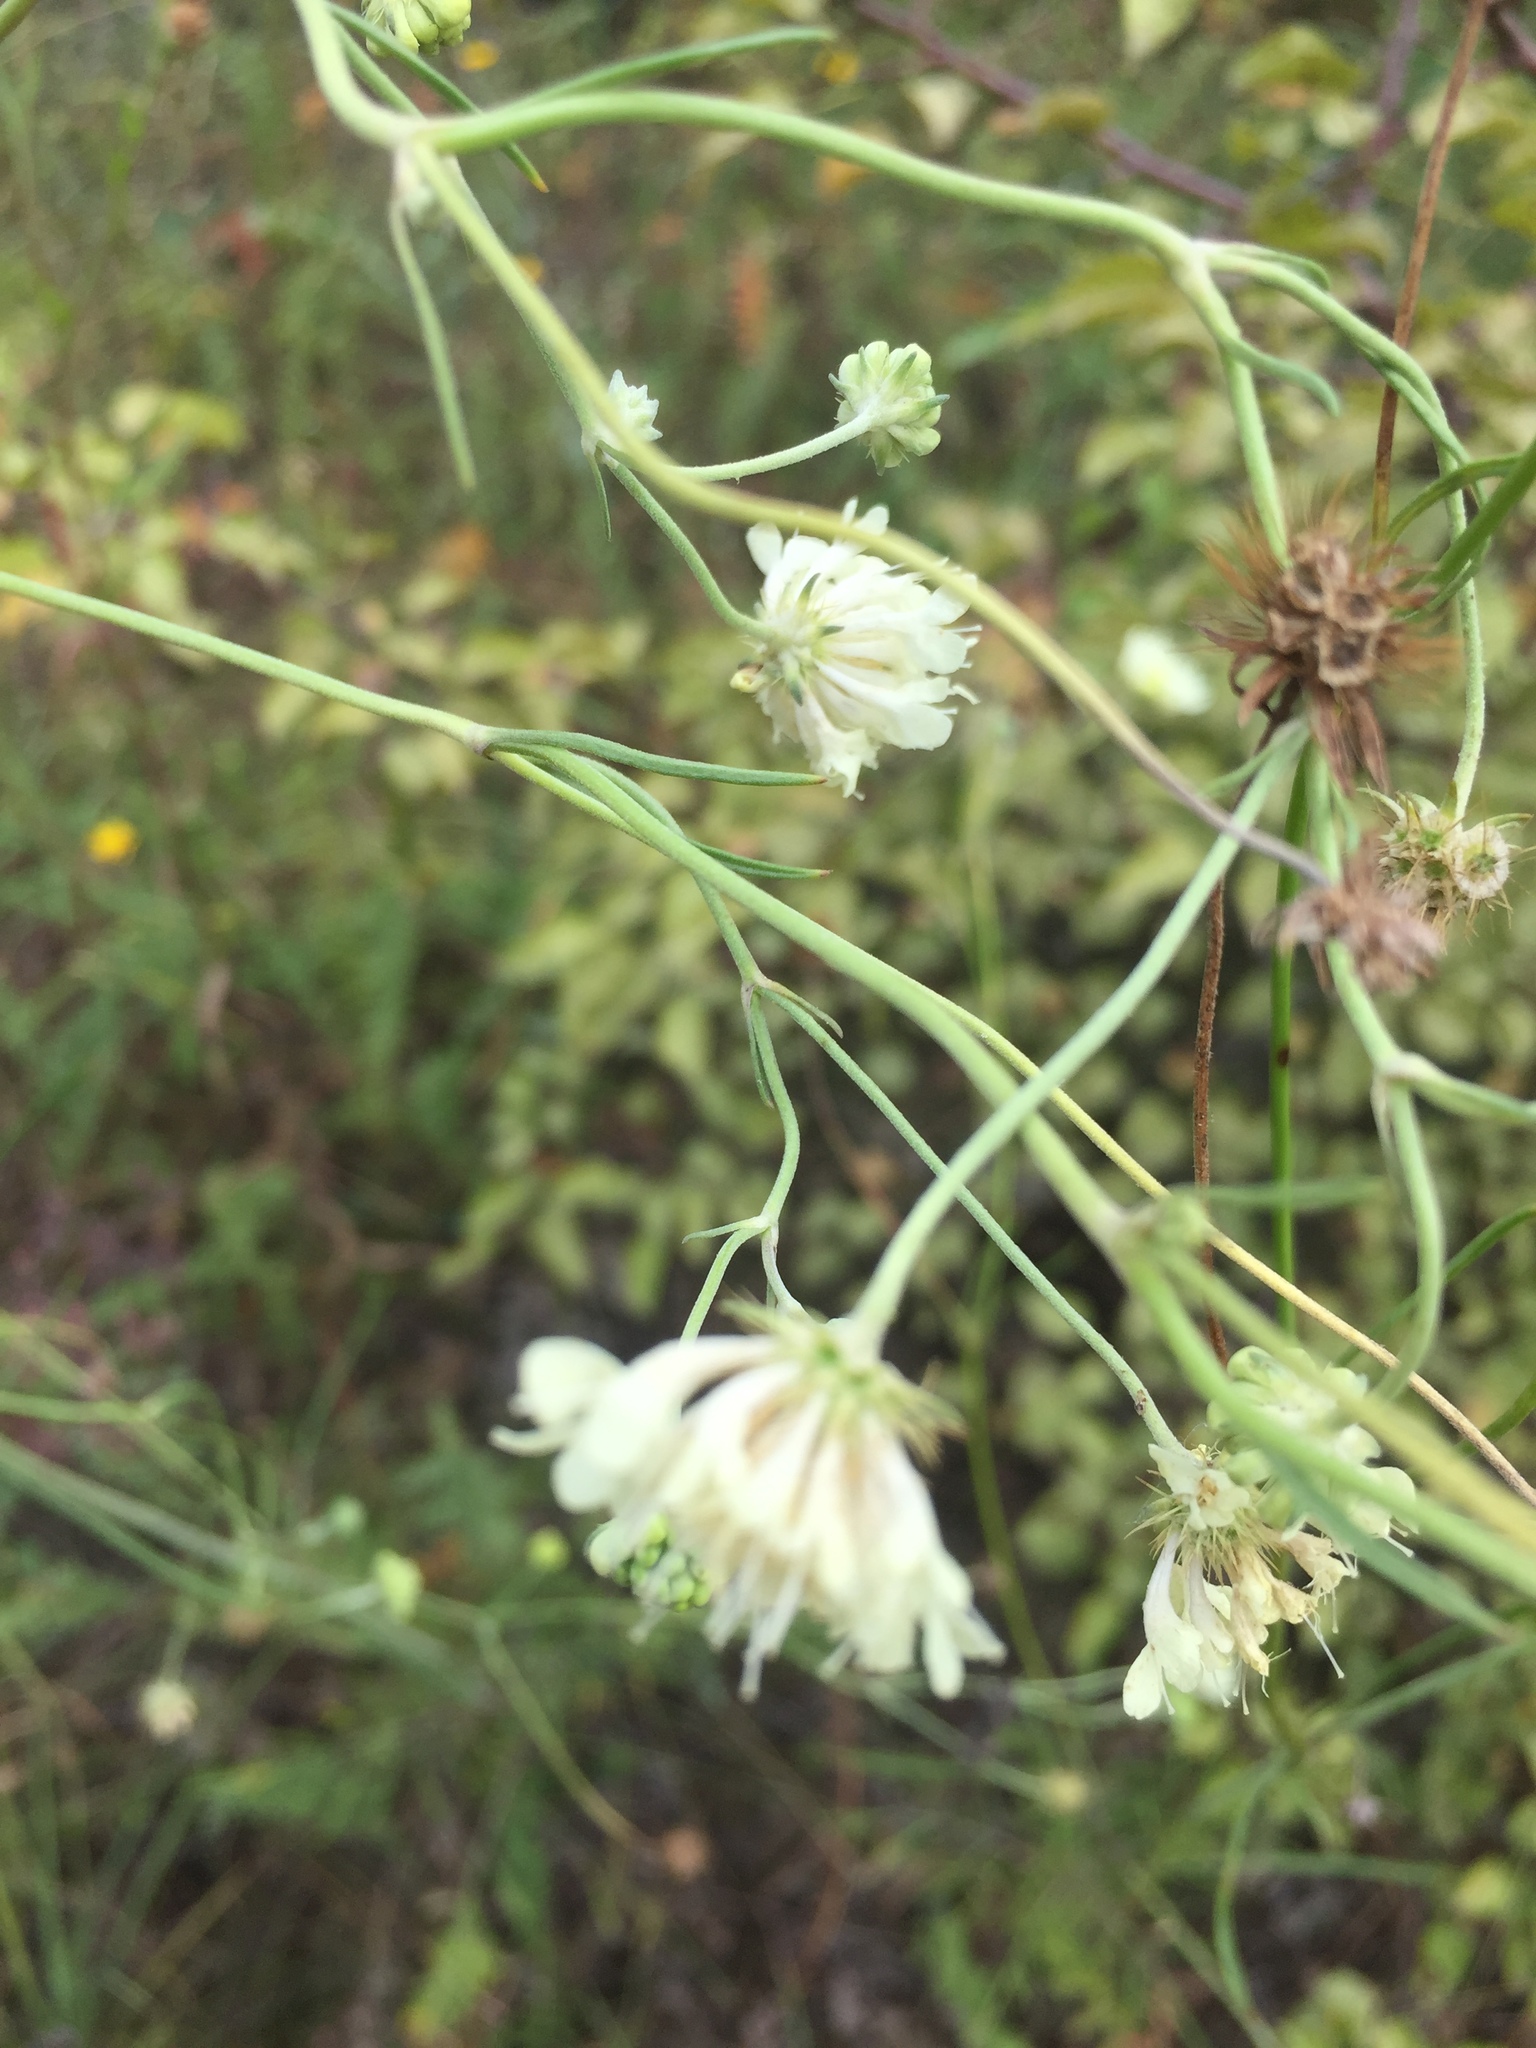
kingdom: Plantae
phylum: Tracheophyta
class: Magnoliopsida
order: Dipsacales
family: Caprifoliaceae
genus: Scabiosa
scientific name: Scabiosa ochroleuca
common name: Cream pincushions
